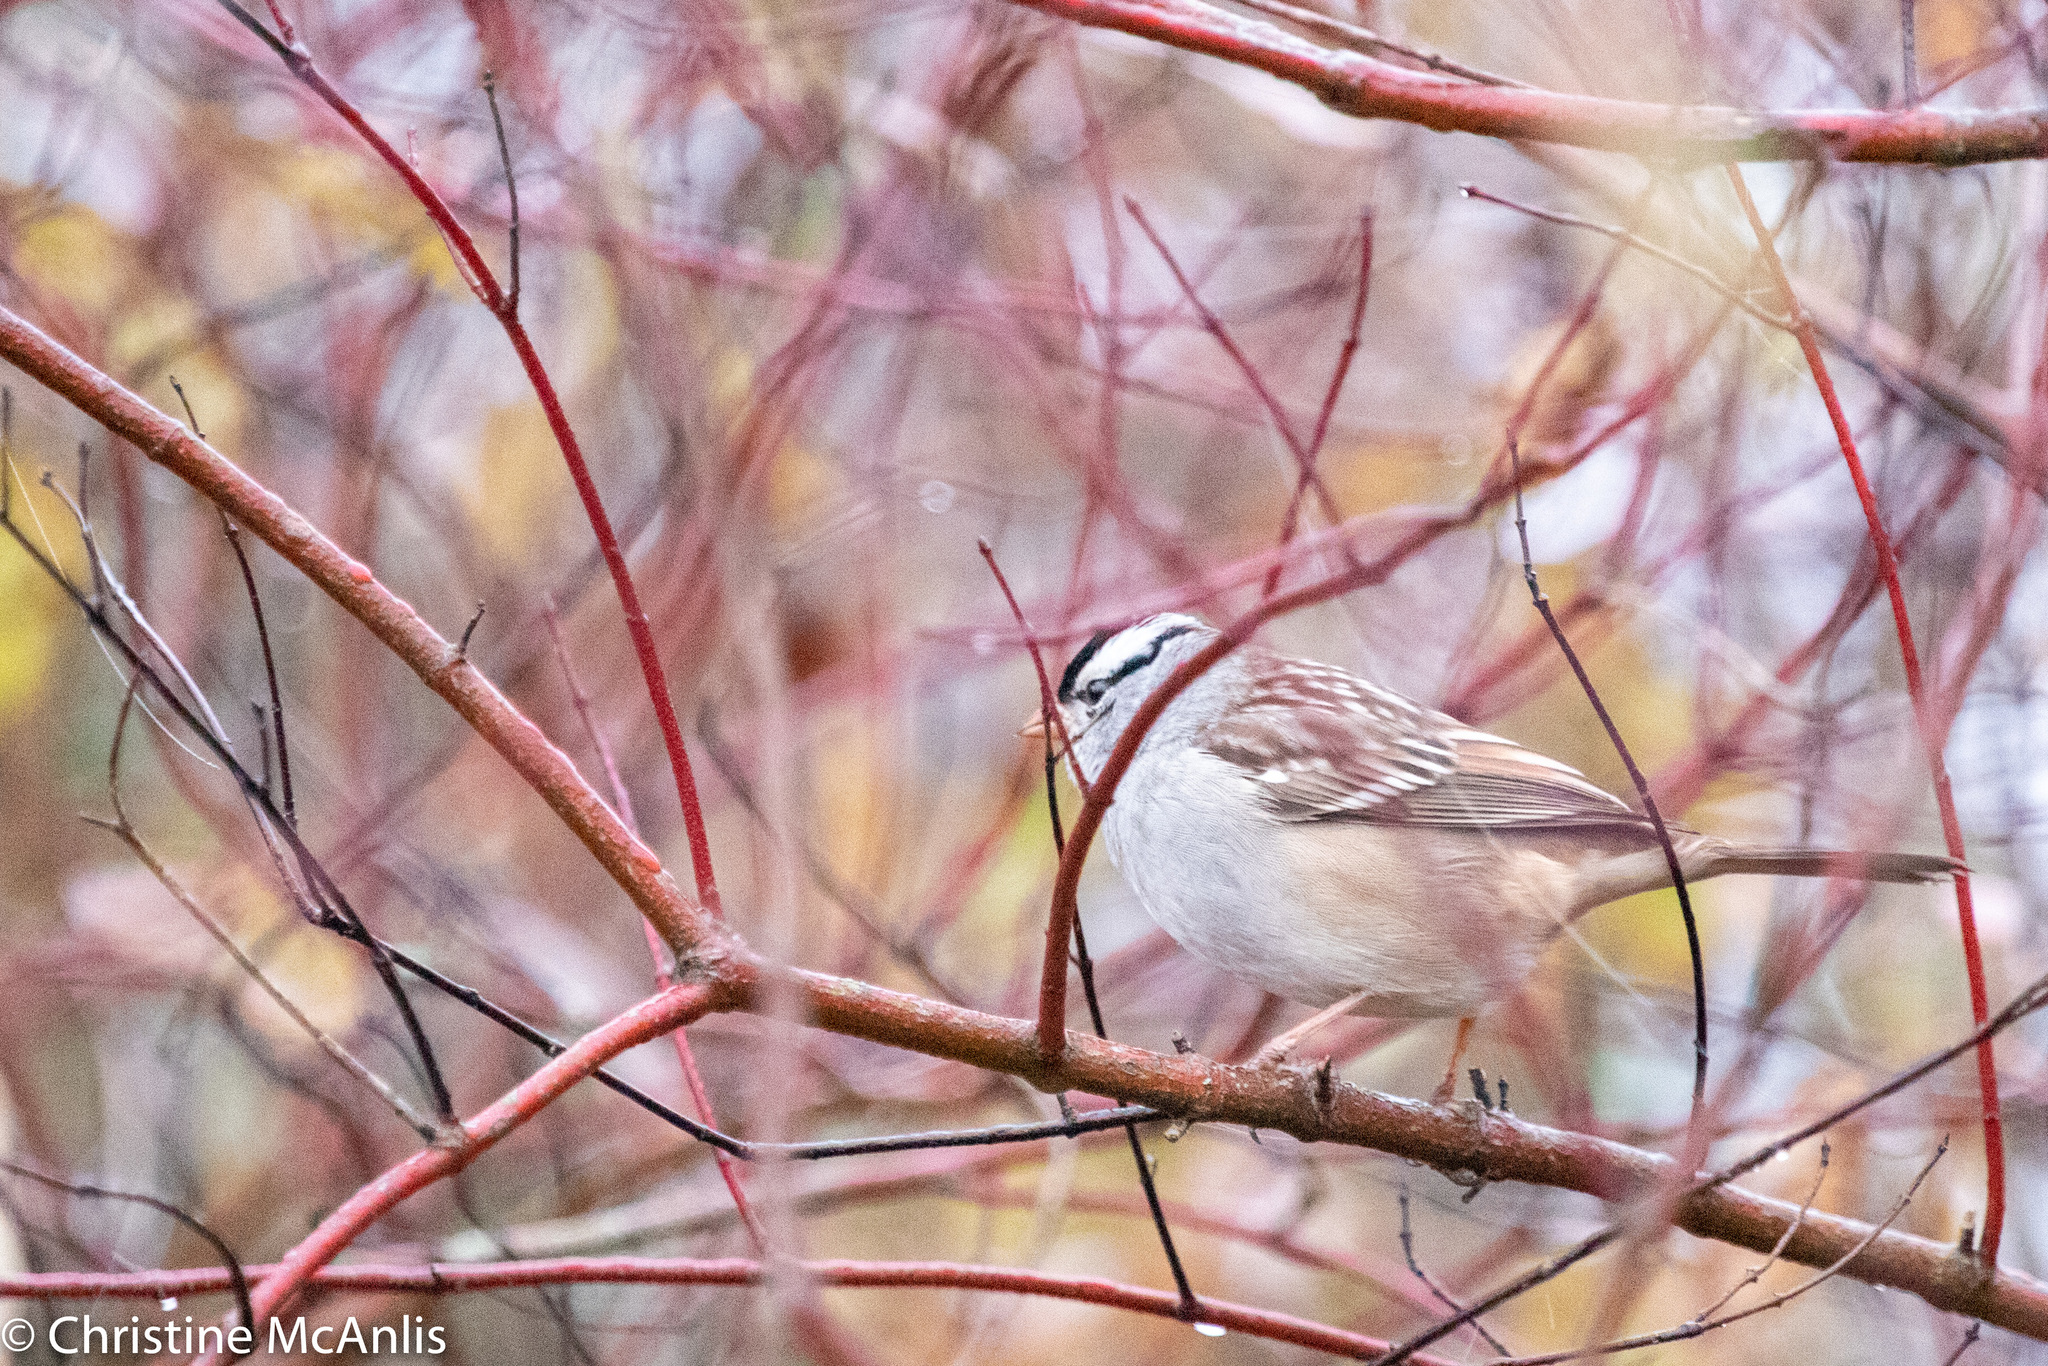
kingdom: Animalia
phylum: Chordata
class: Aves
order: Passeriformes
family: Passerellidae
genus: Zonotrichia
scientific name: Zonotrichia leucophrys
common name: White-crowned sparrow
